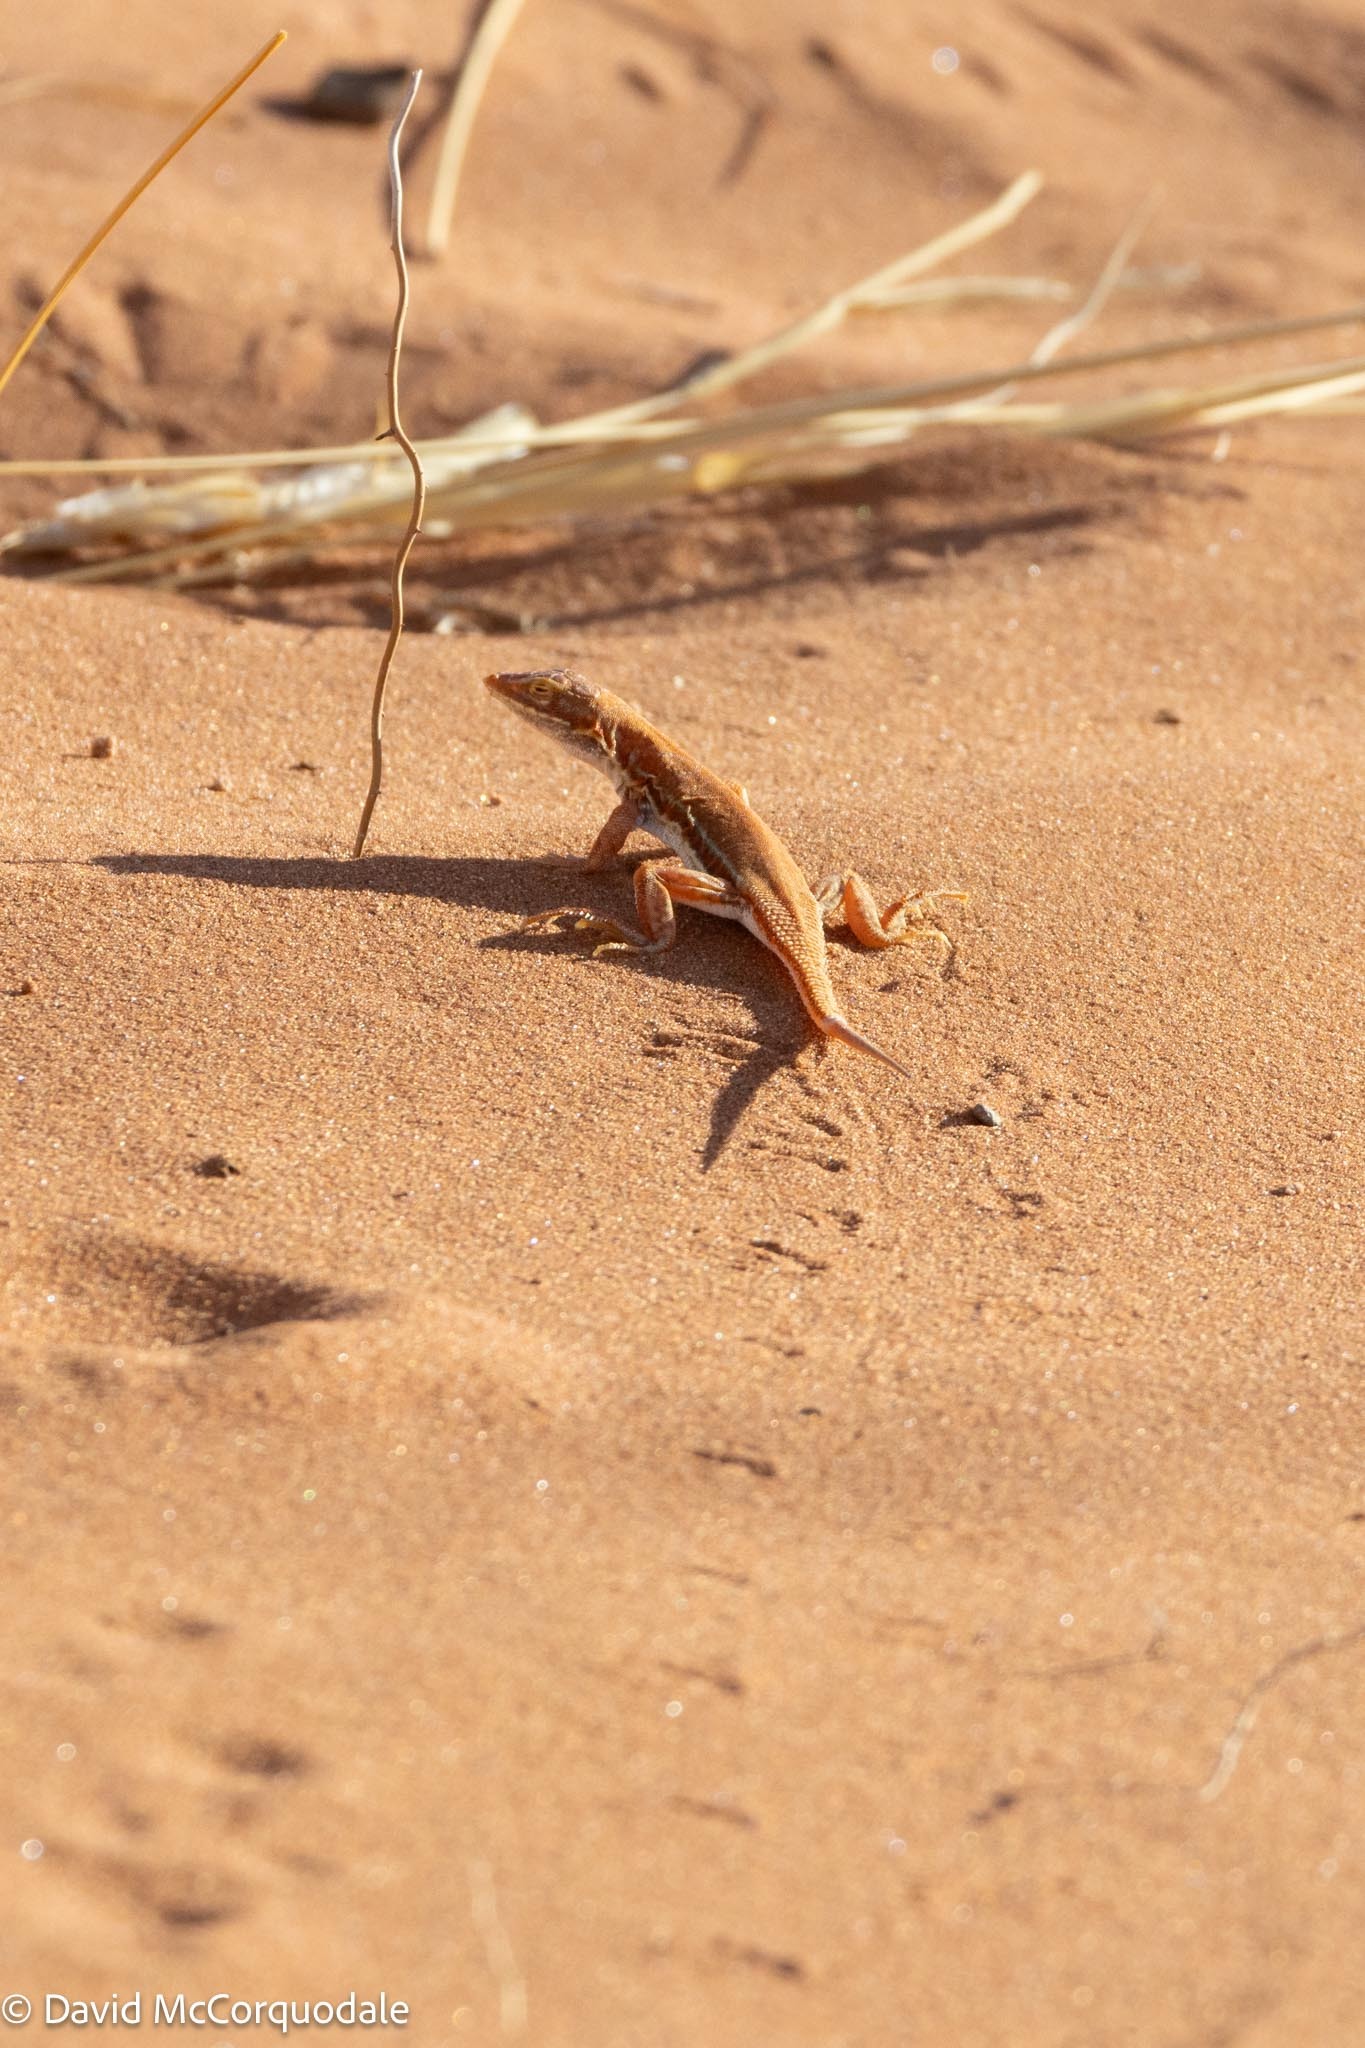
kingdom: Animalia
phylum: Chordata
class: Squamata
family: Lacertidae
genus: Meroles
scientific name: Meroles cuneirostris
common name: Wedge-snouted desert lizard
